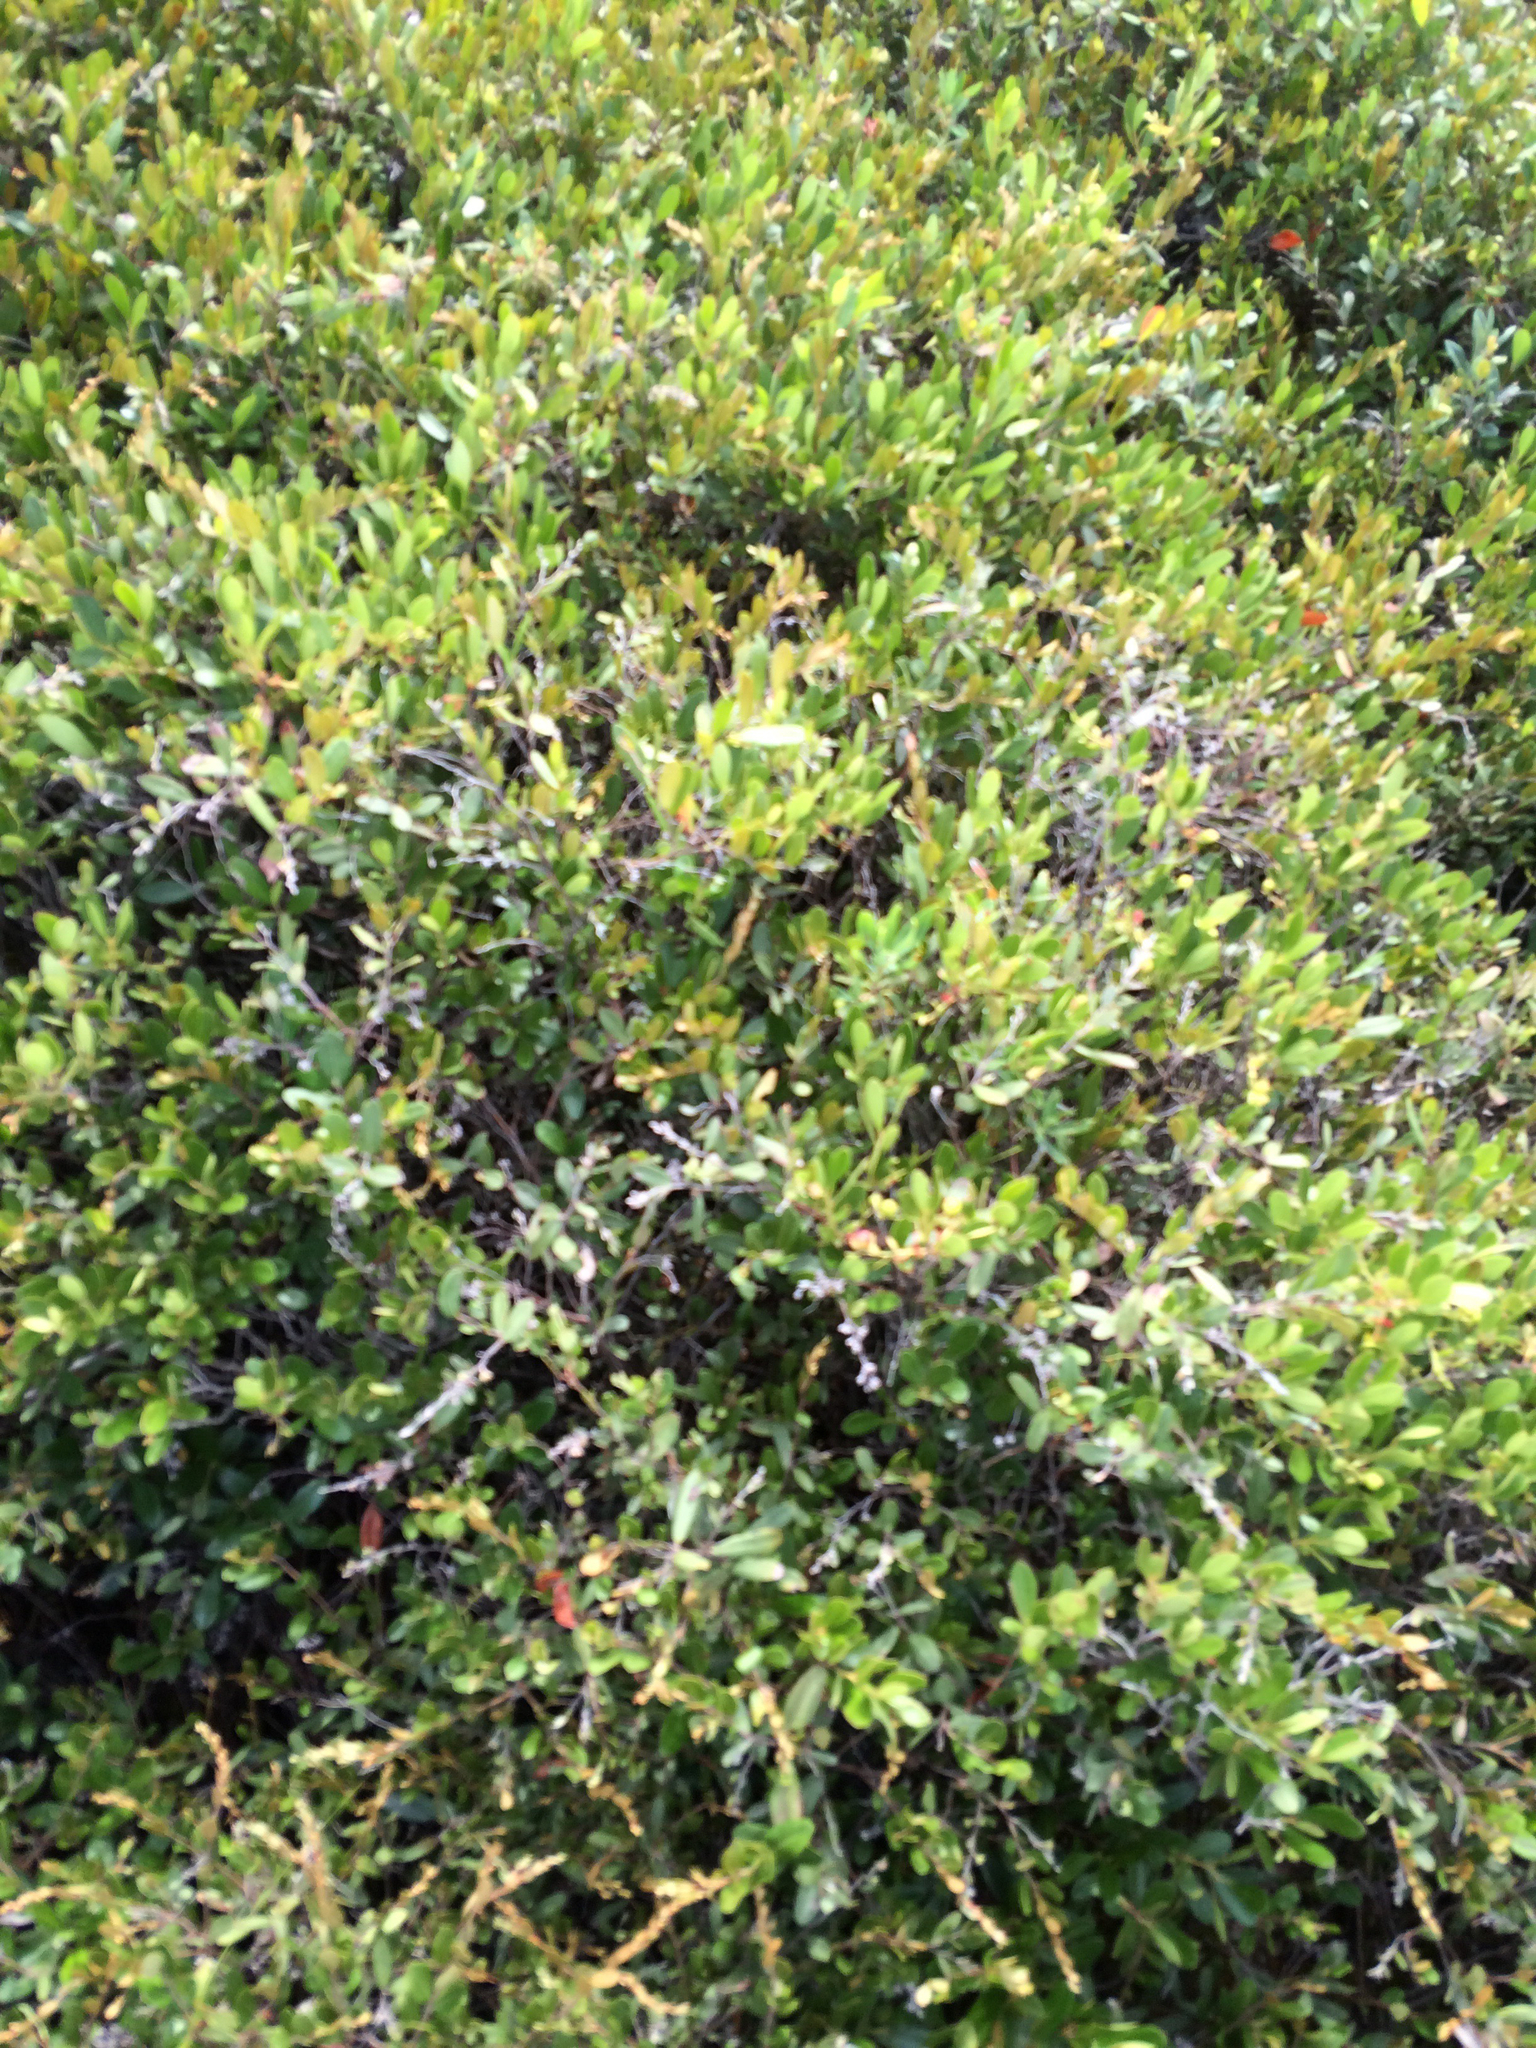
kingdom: Plantae
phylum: Tracheophyta
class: Magnoliopsida
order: Ericales
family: Ericaceae
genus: Chamaedaphne
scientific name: Chamaedaphne calyculata
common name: Leatherleaf
